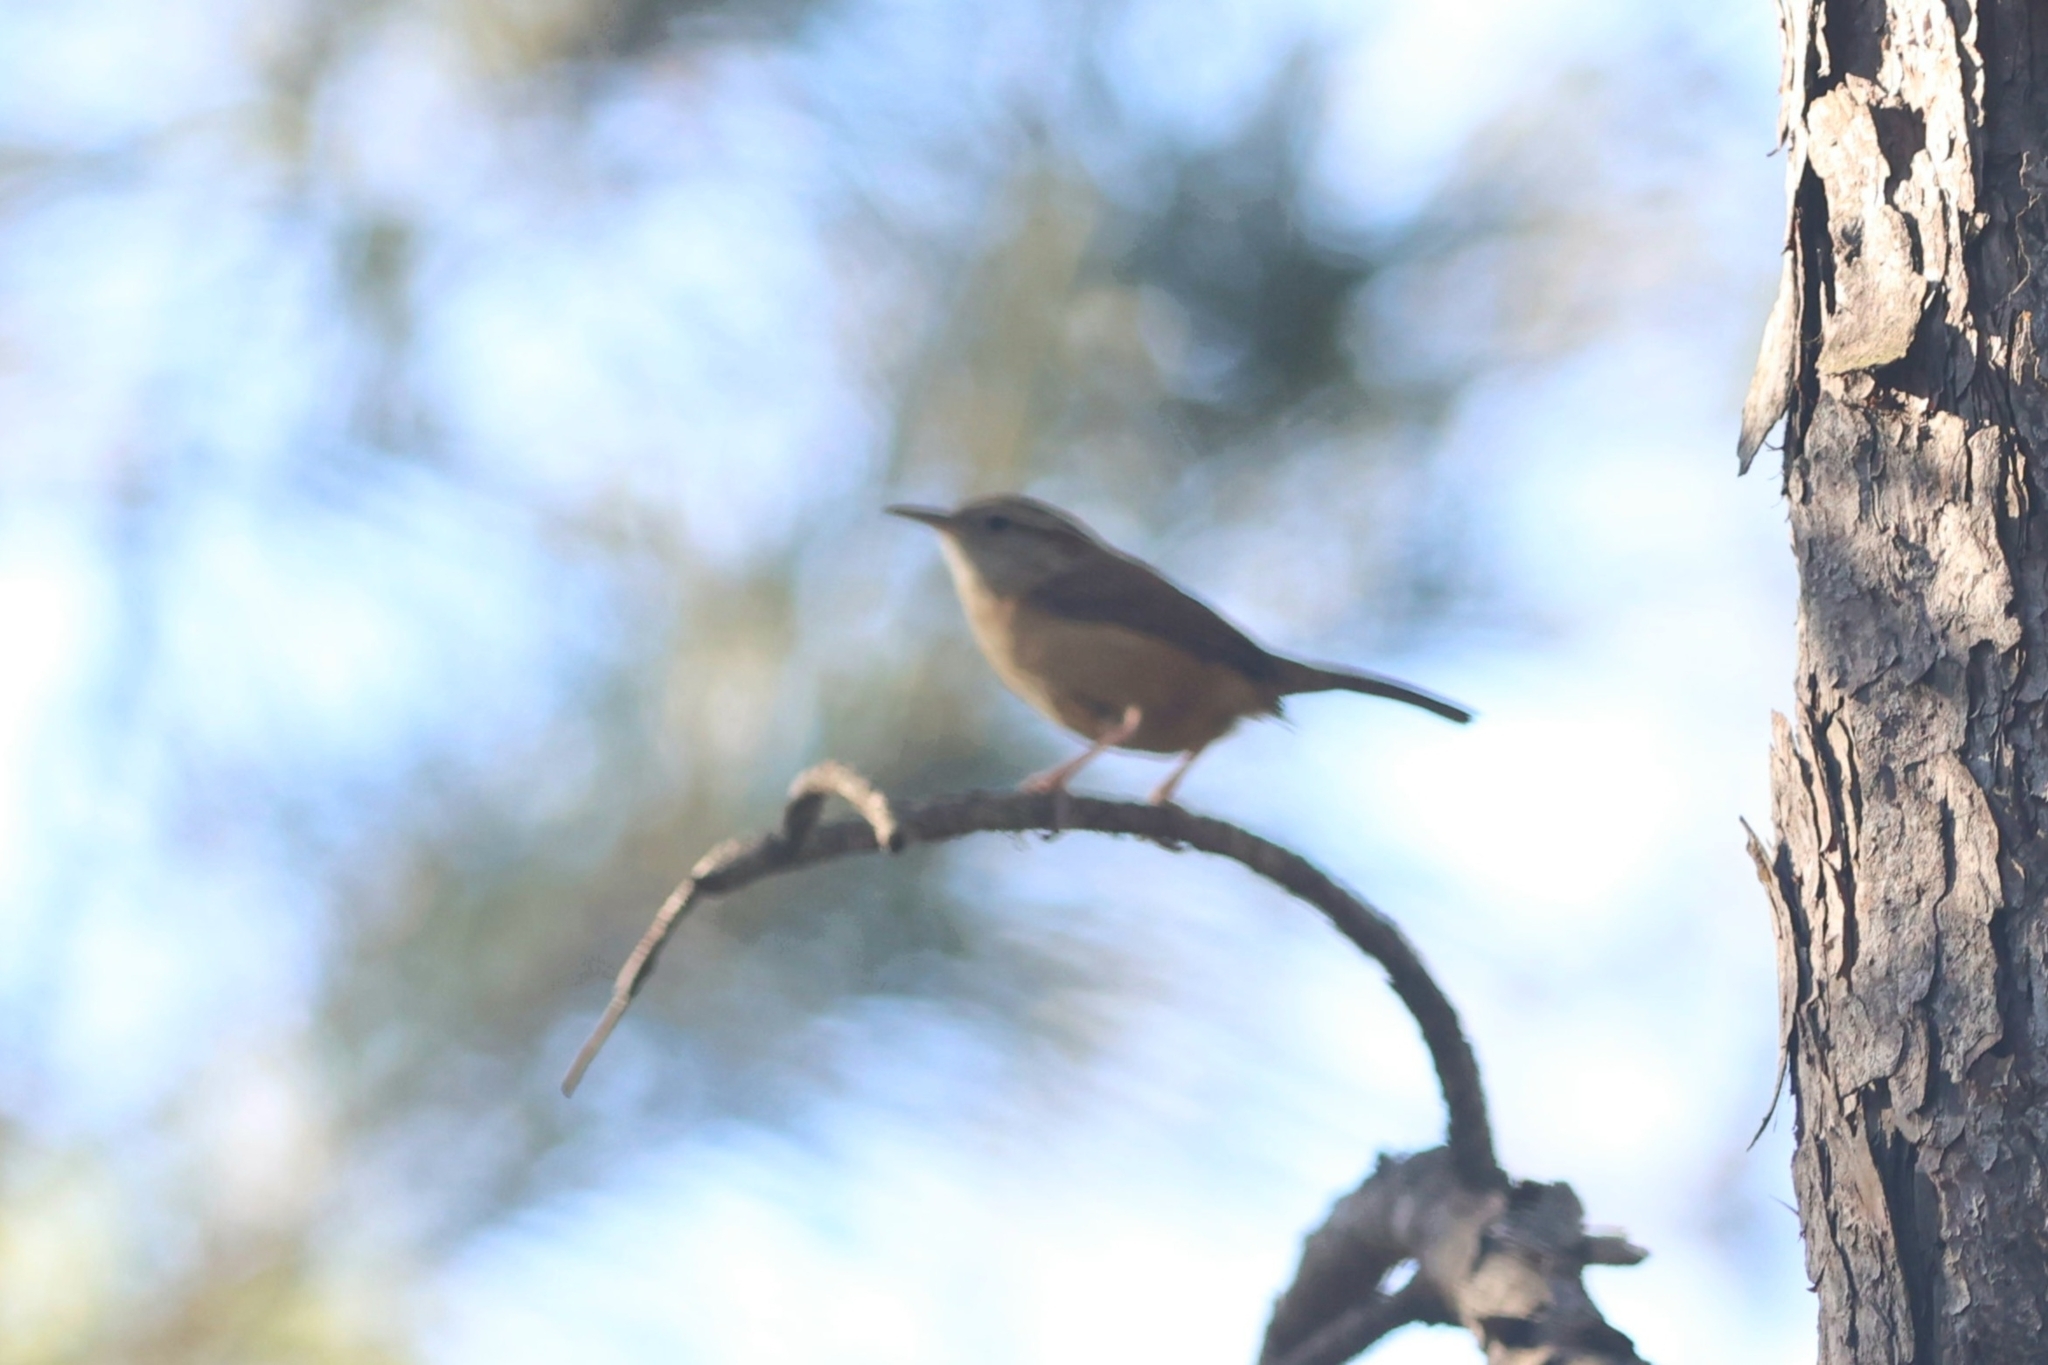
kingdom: Animalia
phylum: Chordata
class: Aves
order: Passeriformes
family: Troglodytidae
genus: Thryothorus
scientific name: Thryothorus ludovicianus
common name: Carolina wren
